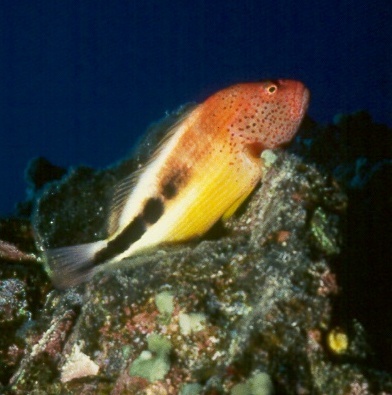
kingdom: Animalia
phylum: Chordata
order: Perciformes
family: Cirrhitidae
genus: Paracirrhites
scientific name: Paracirrhites forsteri
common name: Freckled hawkfish
